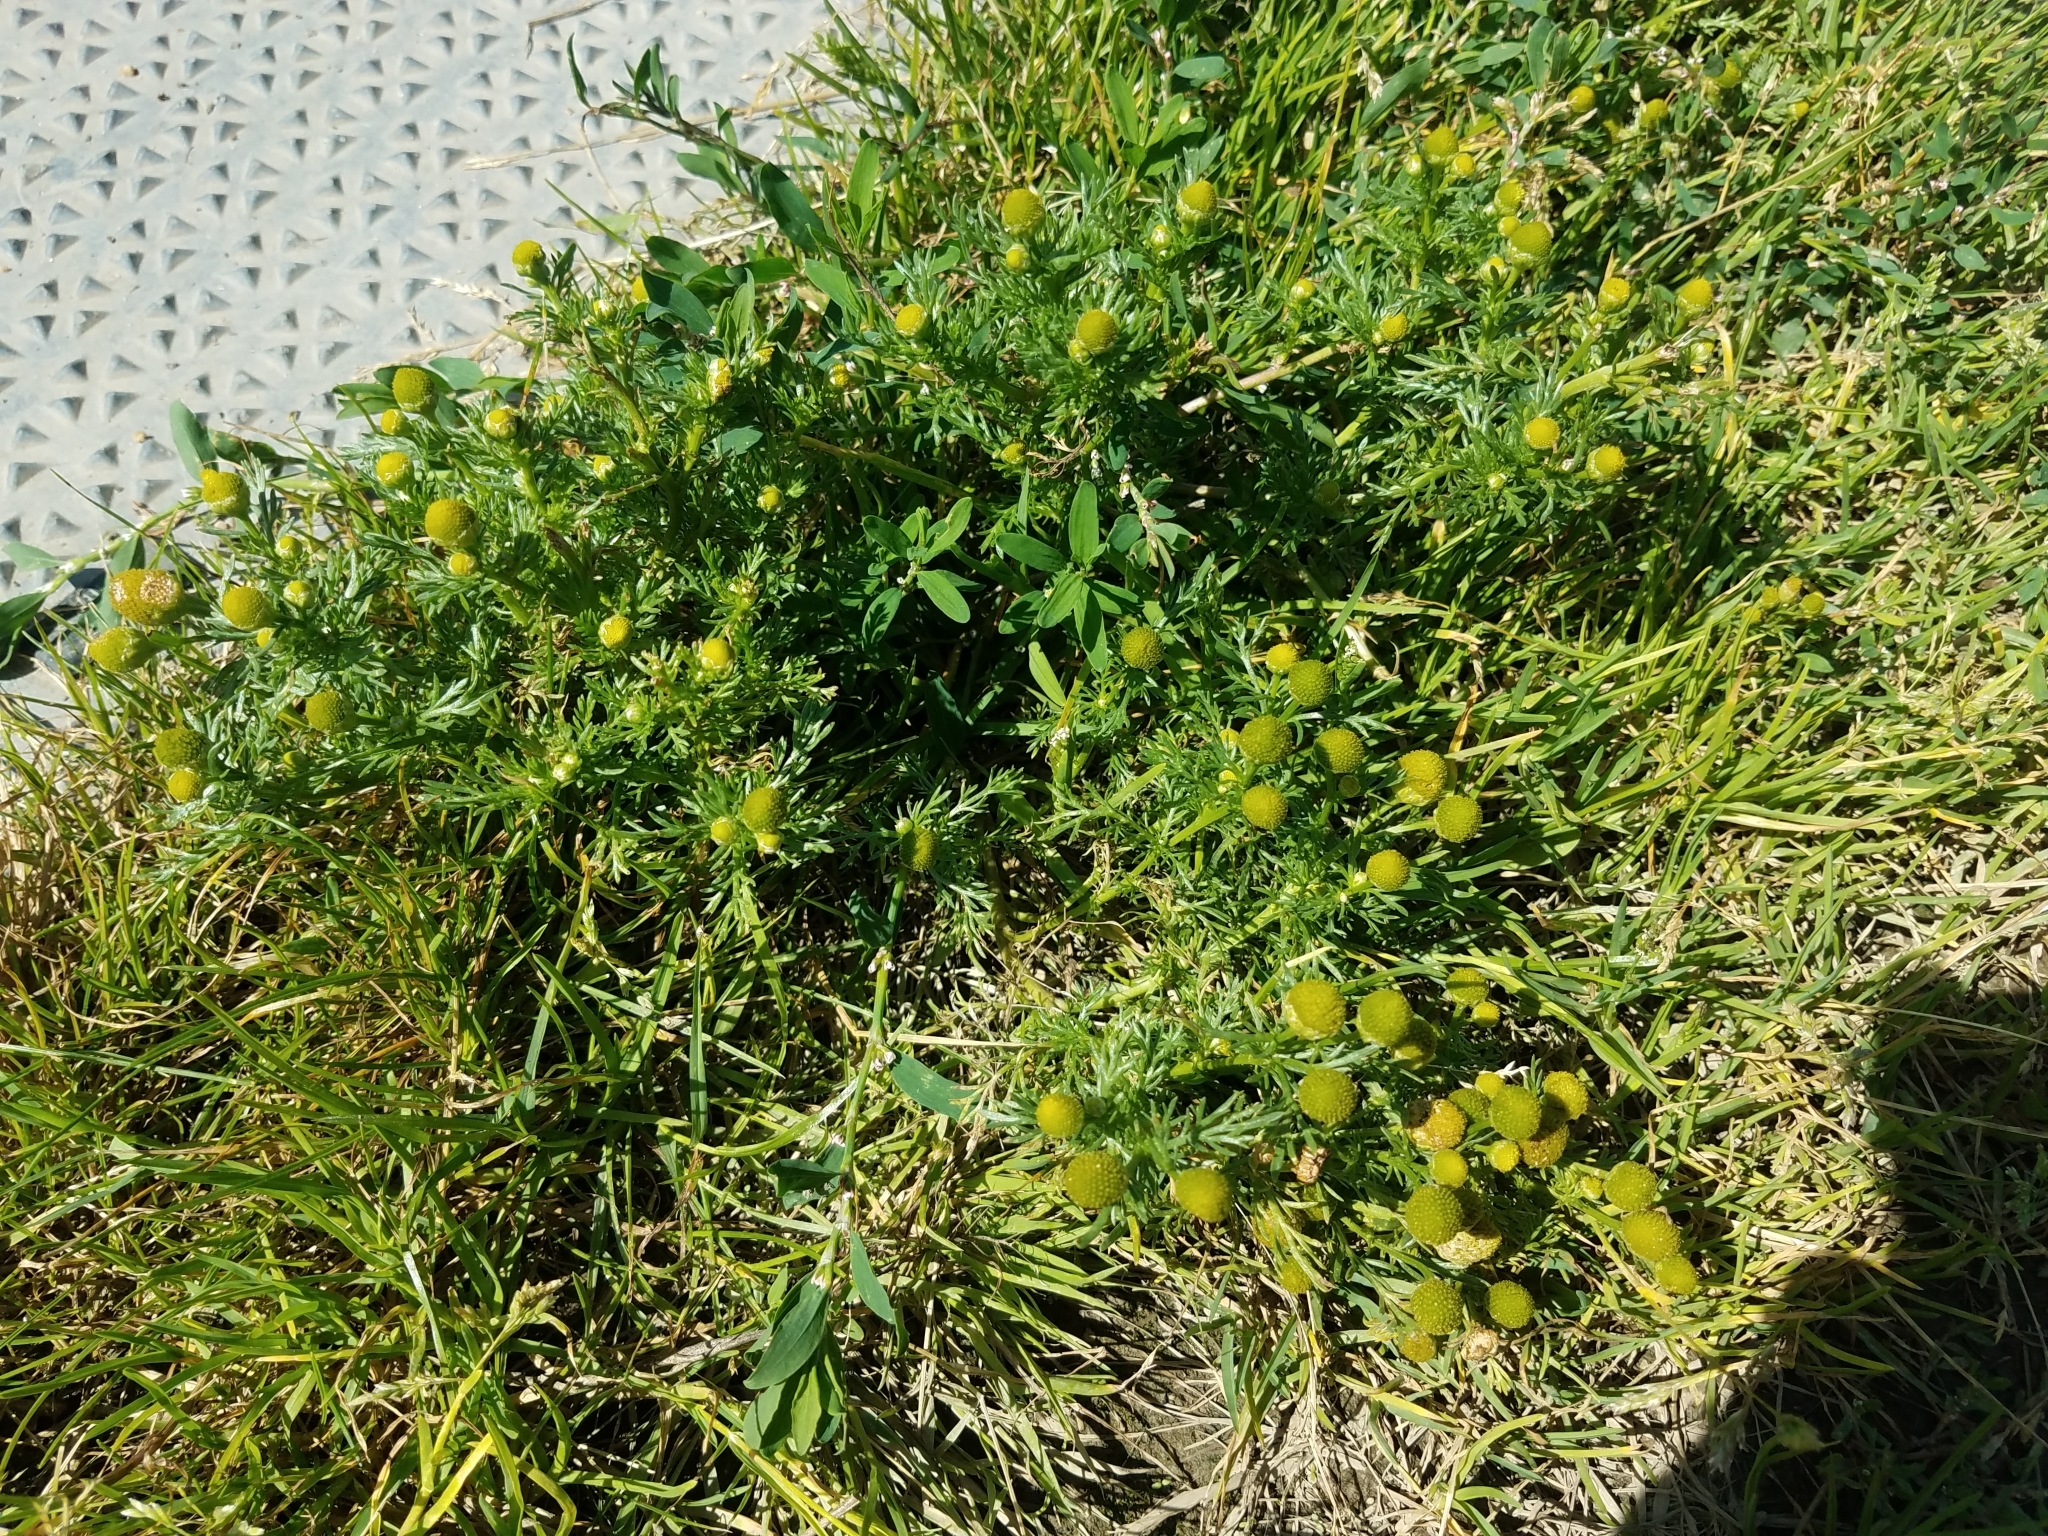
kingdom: Plantae
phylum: Tracheophyta
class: Magnoliopsida
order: Asterales
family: Asteraceae
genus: Matricaria
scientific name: Matricaria discoidea
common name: Disc mayweed
